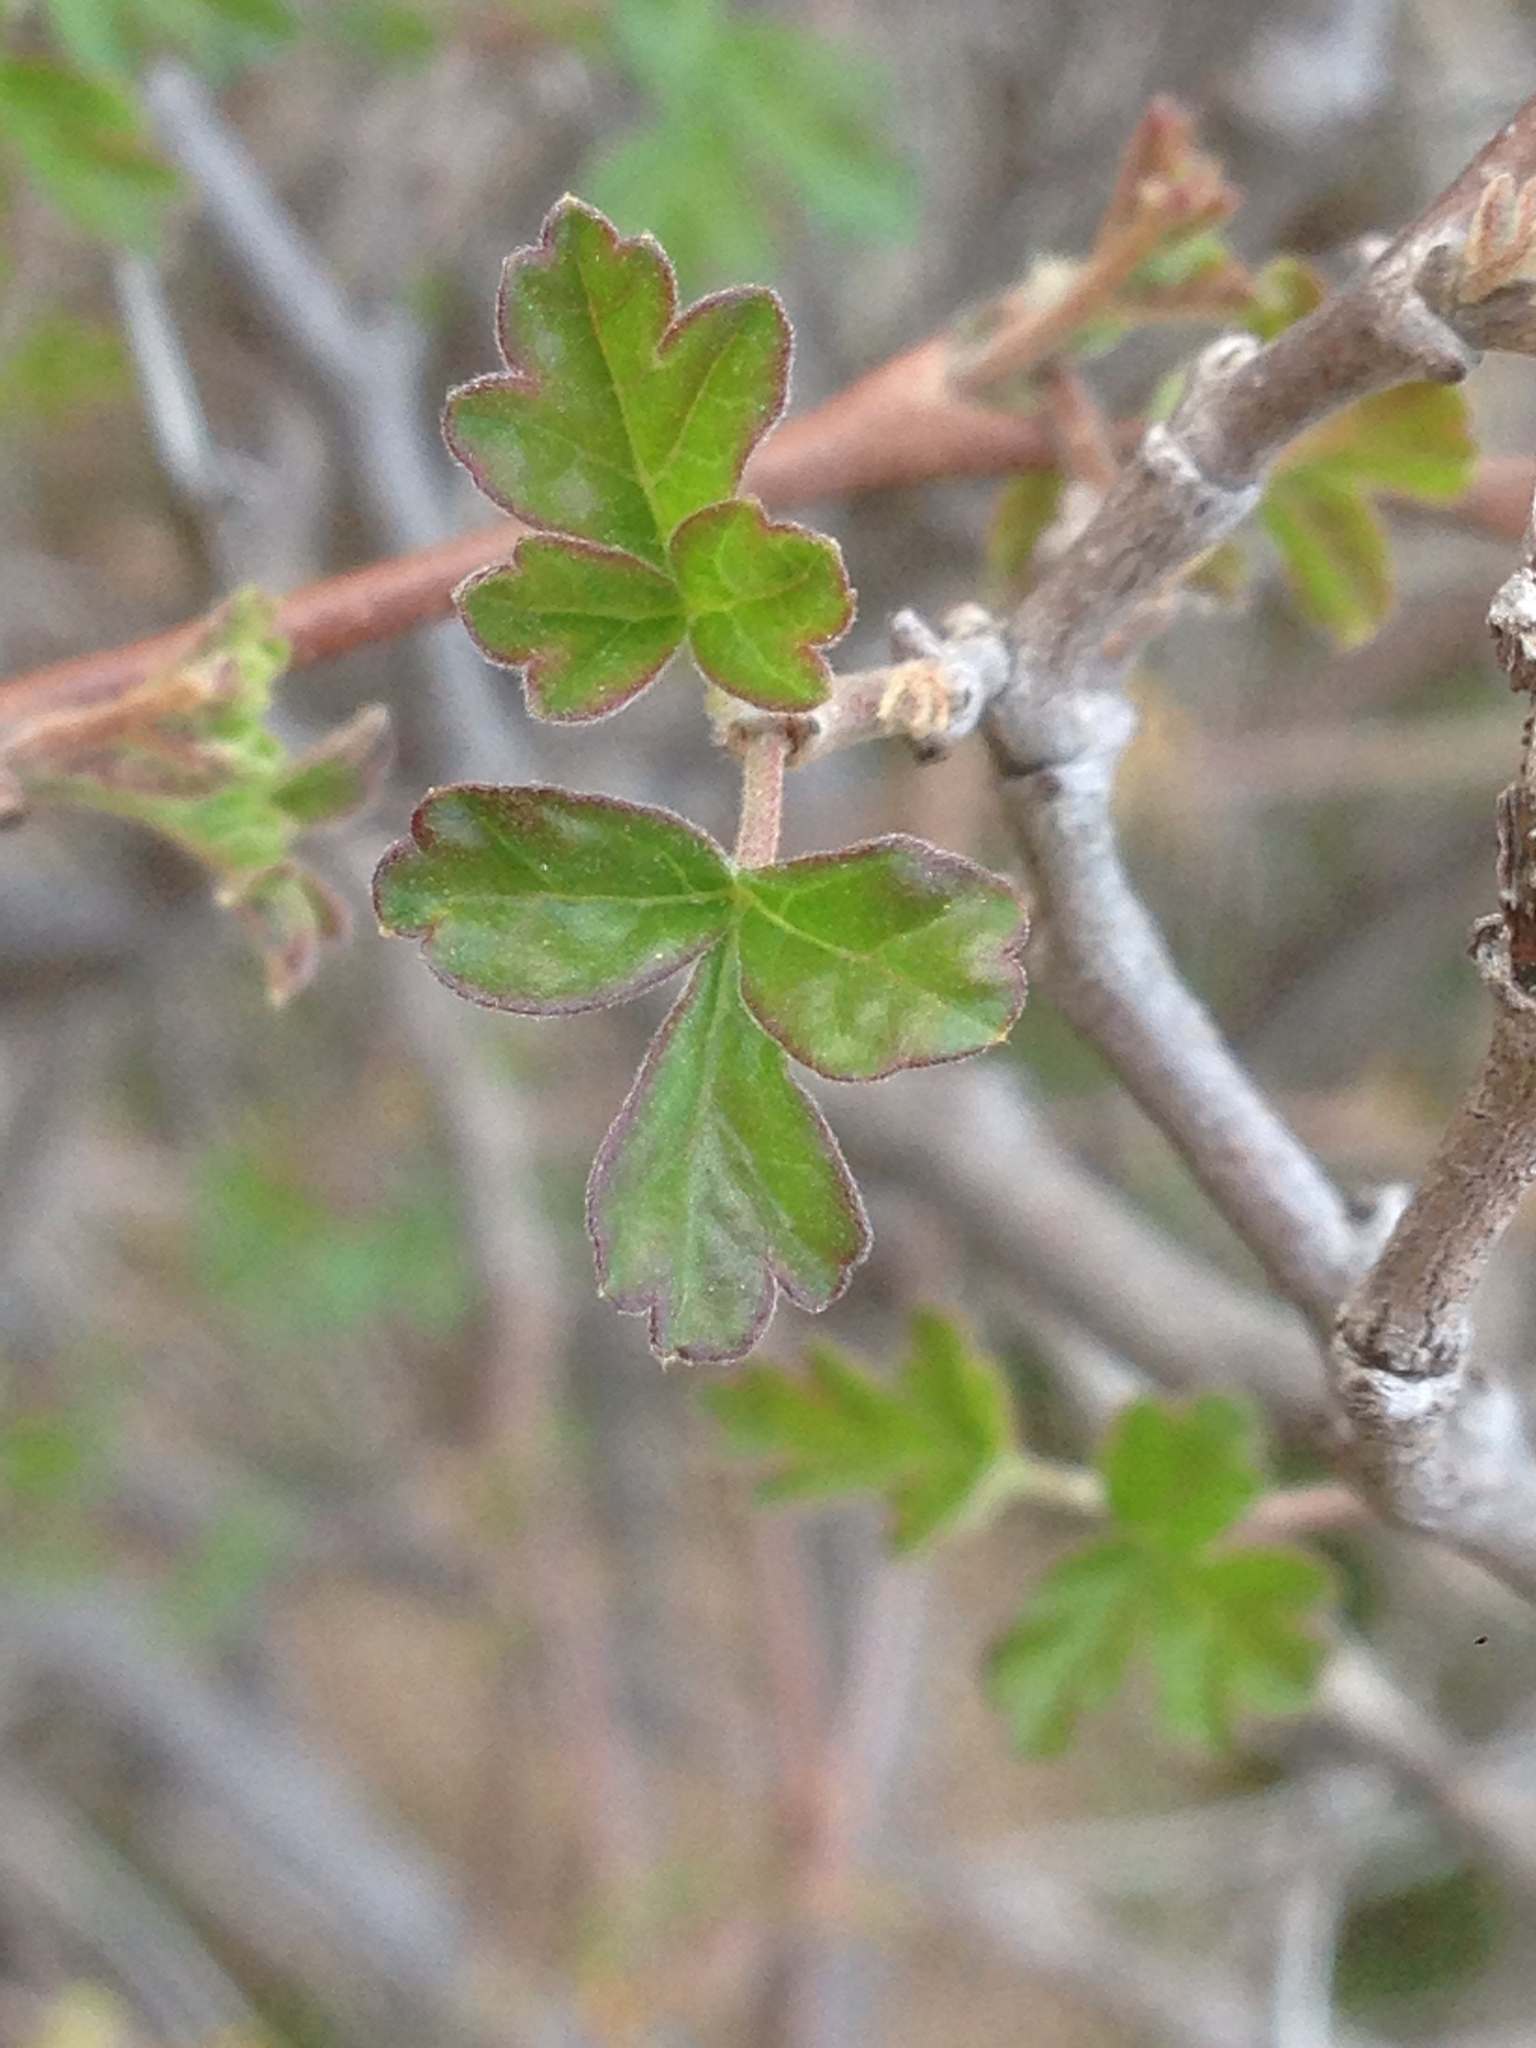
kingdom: Plantae
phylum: Tracheophyta
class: Magnoliopsida
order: Sapindales
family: Anacardiaceae
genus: Rhus
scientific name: Rhus aromatica
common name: Aromatic sumac
